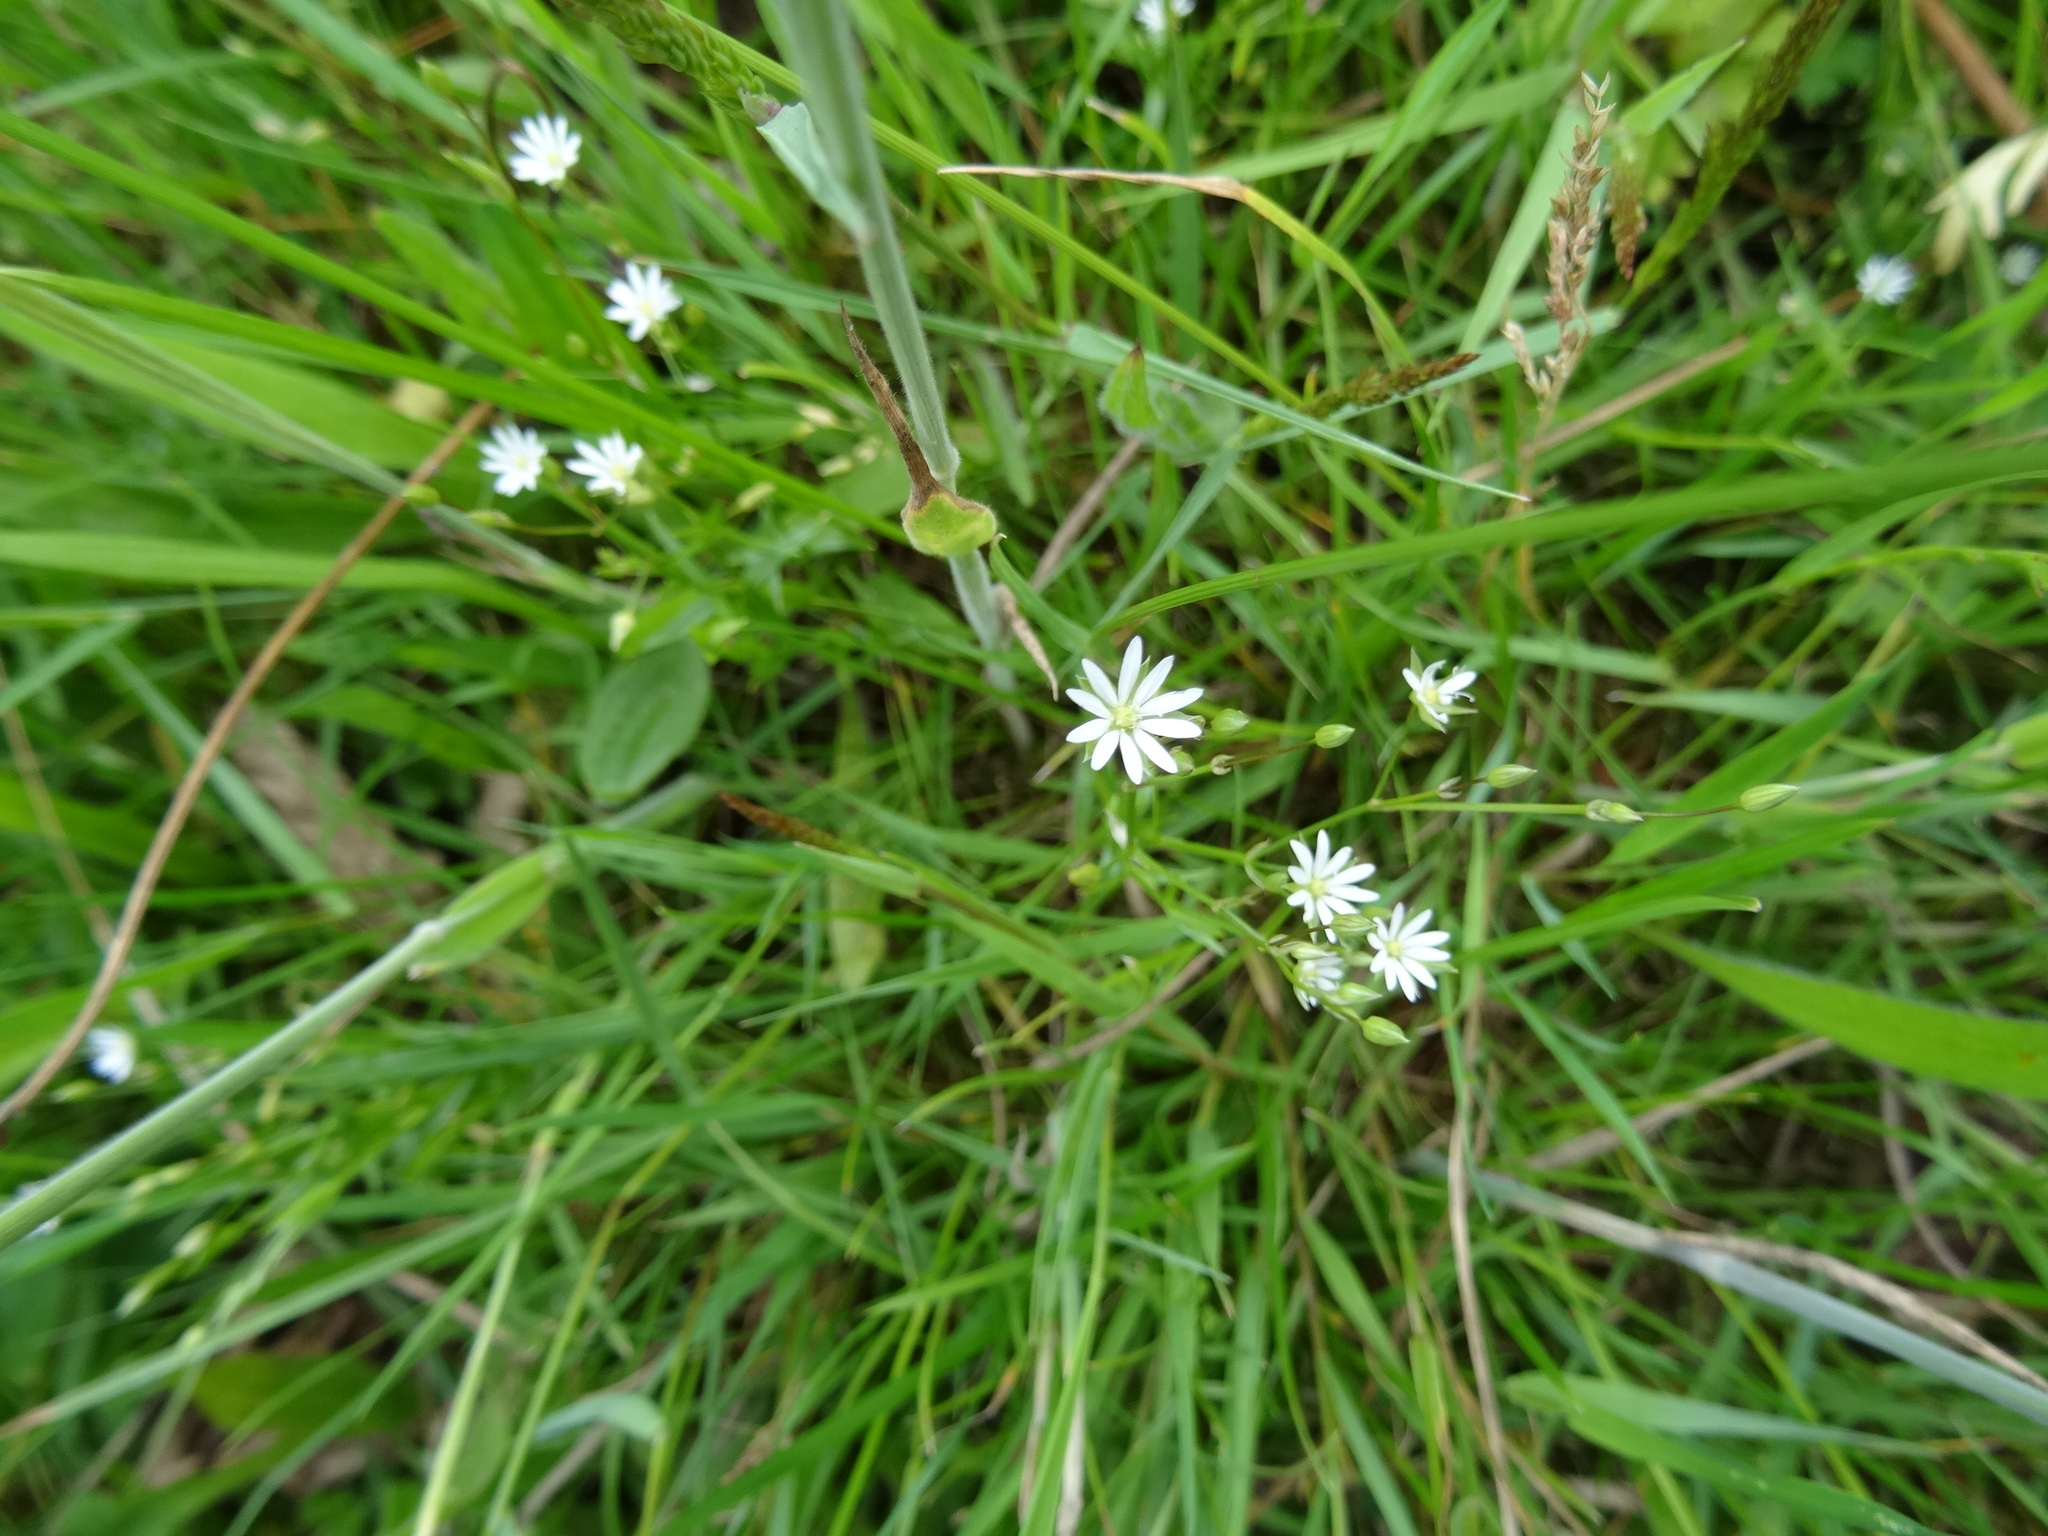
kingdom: Plantae
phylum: Tracheophyta
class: Magnoliopsida
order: Caryophyllales
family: Caryophyllaceae
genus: Stellaria
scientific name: Stellaria graminea
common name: Grass-like starwort
